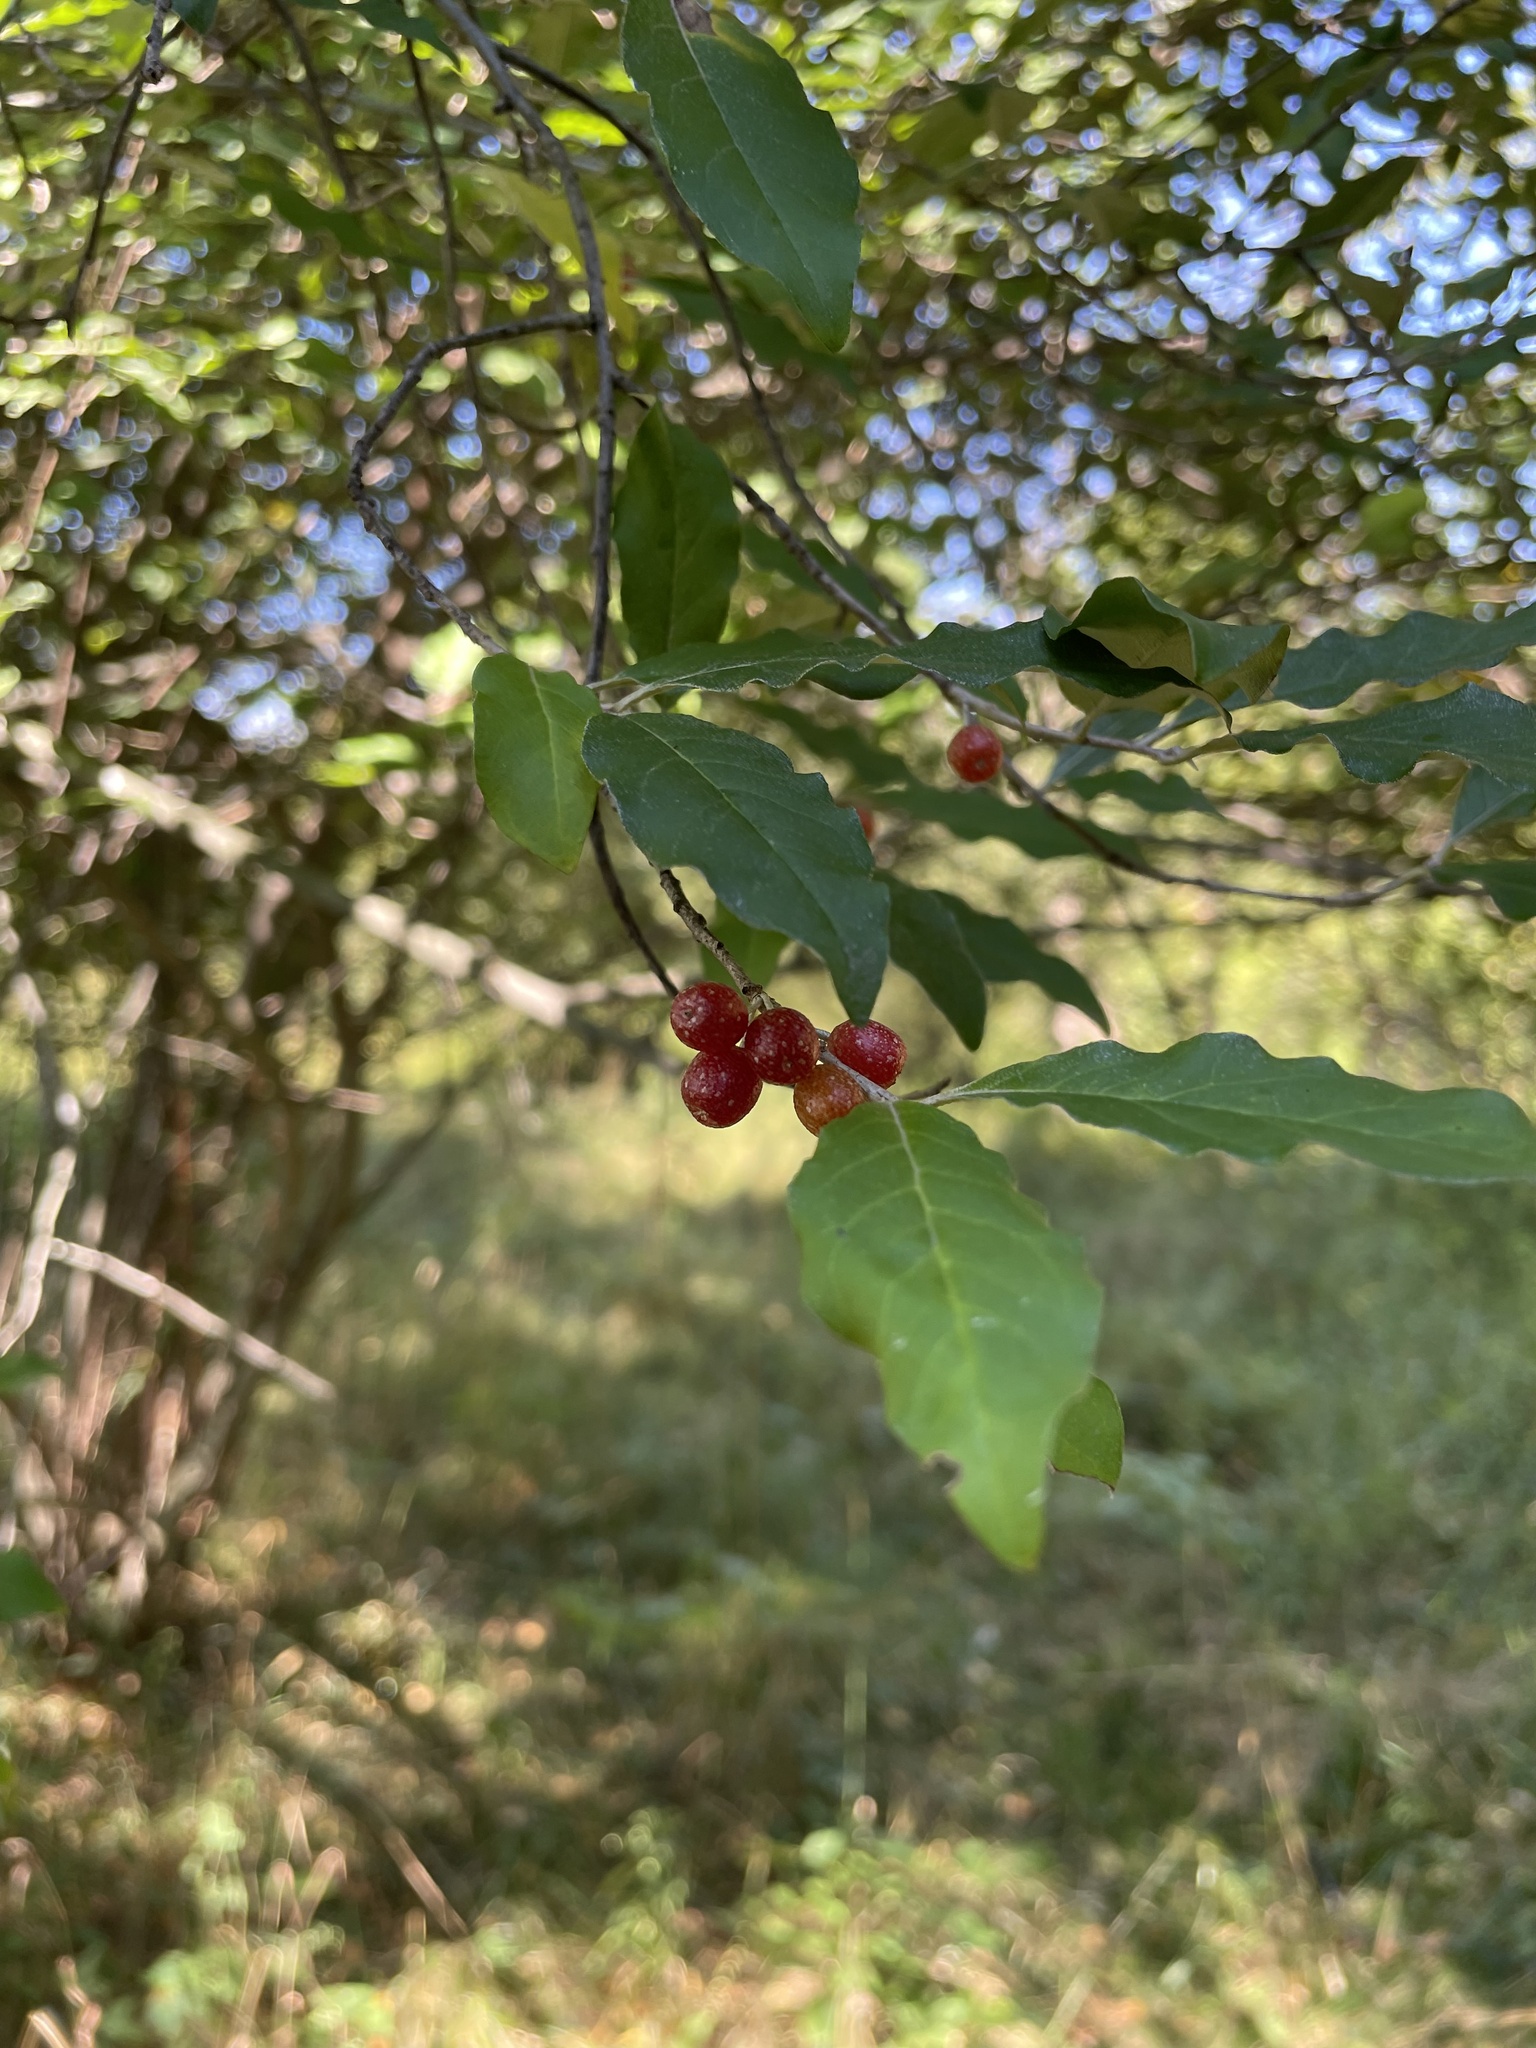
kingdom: Plantae
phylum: Tracheophyta
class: Magnoliopsida
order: Rosales
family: Elaeagnaceae
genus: Elaeagnus
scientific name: Elaeagnus umbellata
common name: Autumn olive
